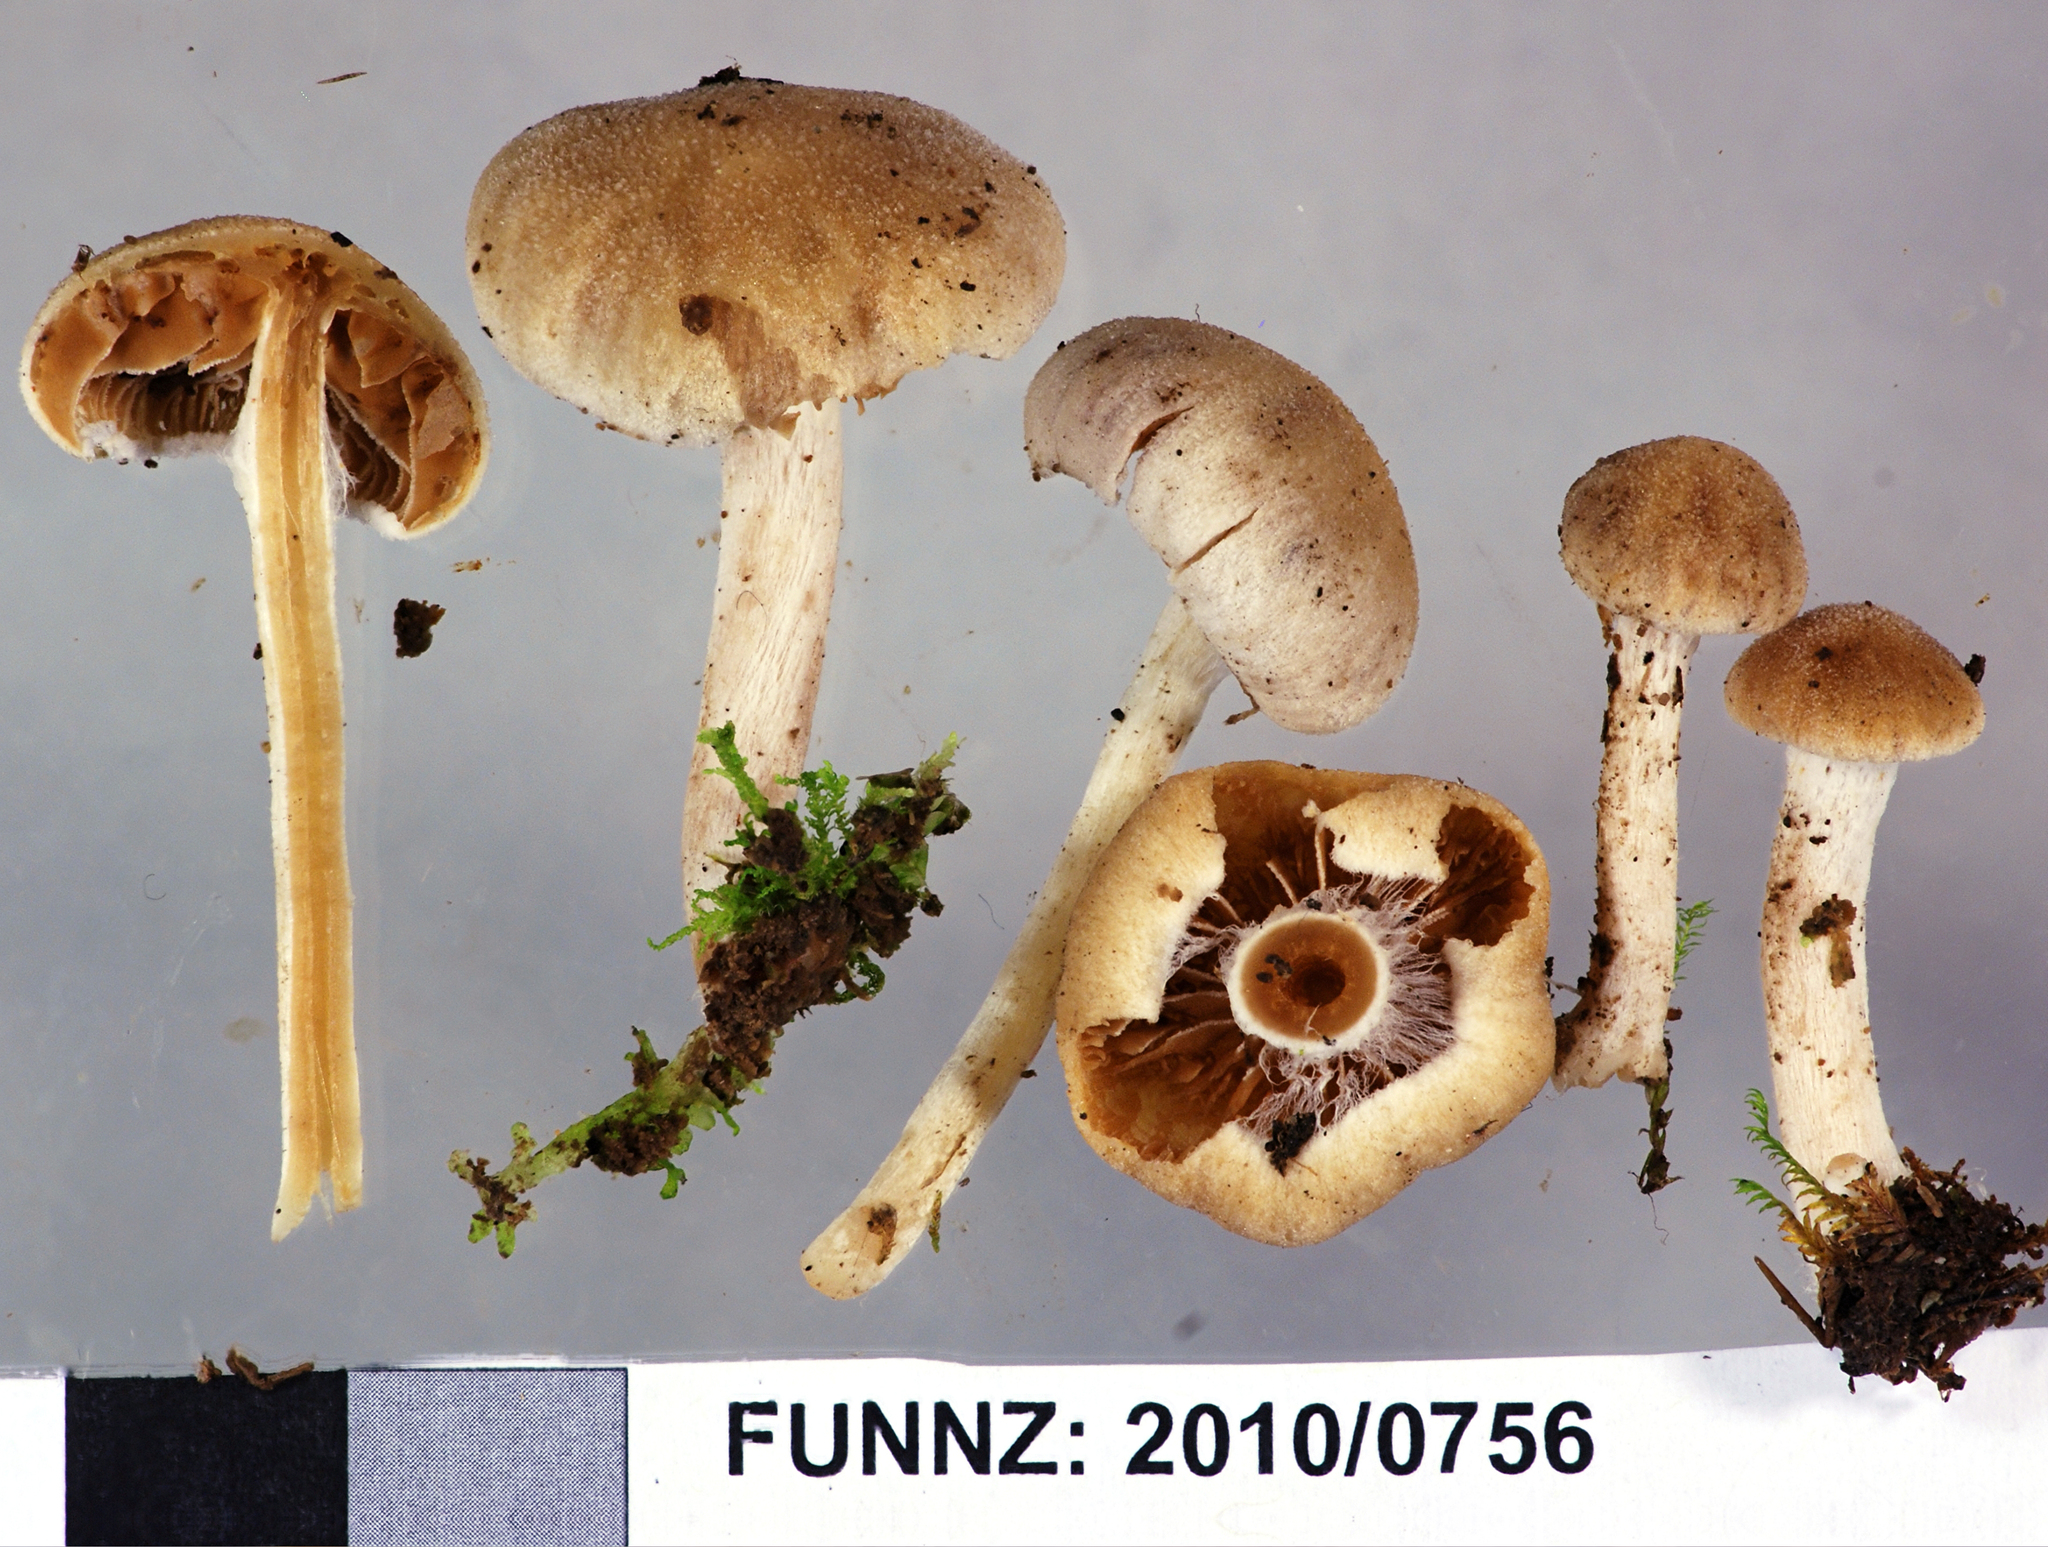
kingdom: Fungi
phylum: Basidiomycota
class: Agaricomycetes
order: Agaricales
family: Bolbitiaceae
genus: Tympanella
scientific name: Tympanella galanthina
